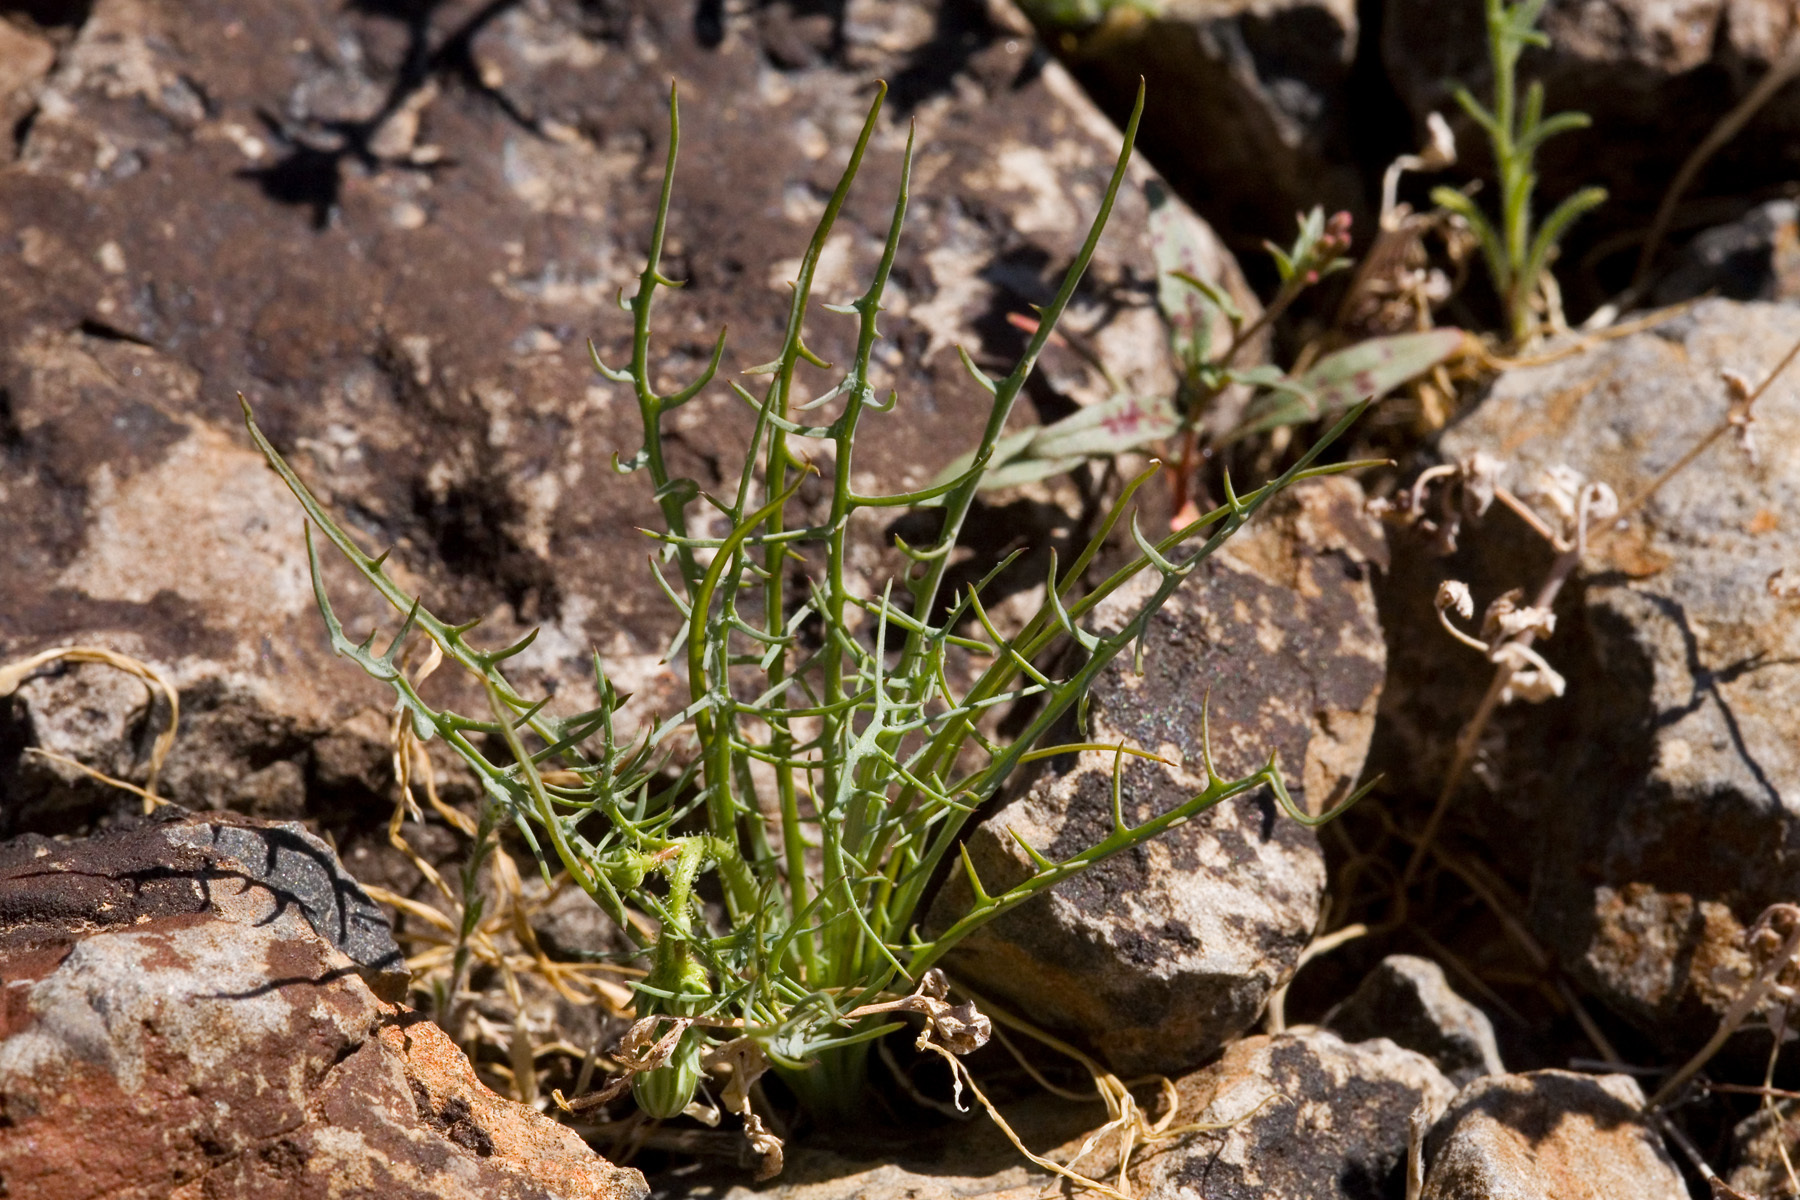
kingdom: Plantae
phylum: Tracheophyta
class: Magnoliopsida
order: Asterales
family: Asteraceae
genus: Calycoseris
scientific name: Calycoseris wrightii
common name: White tackstem
